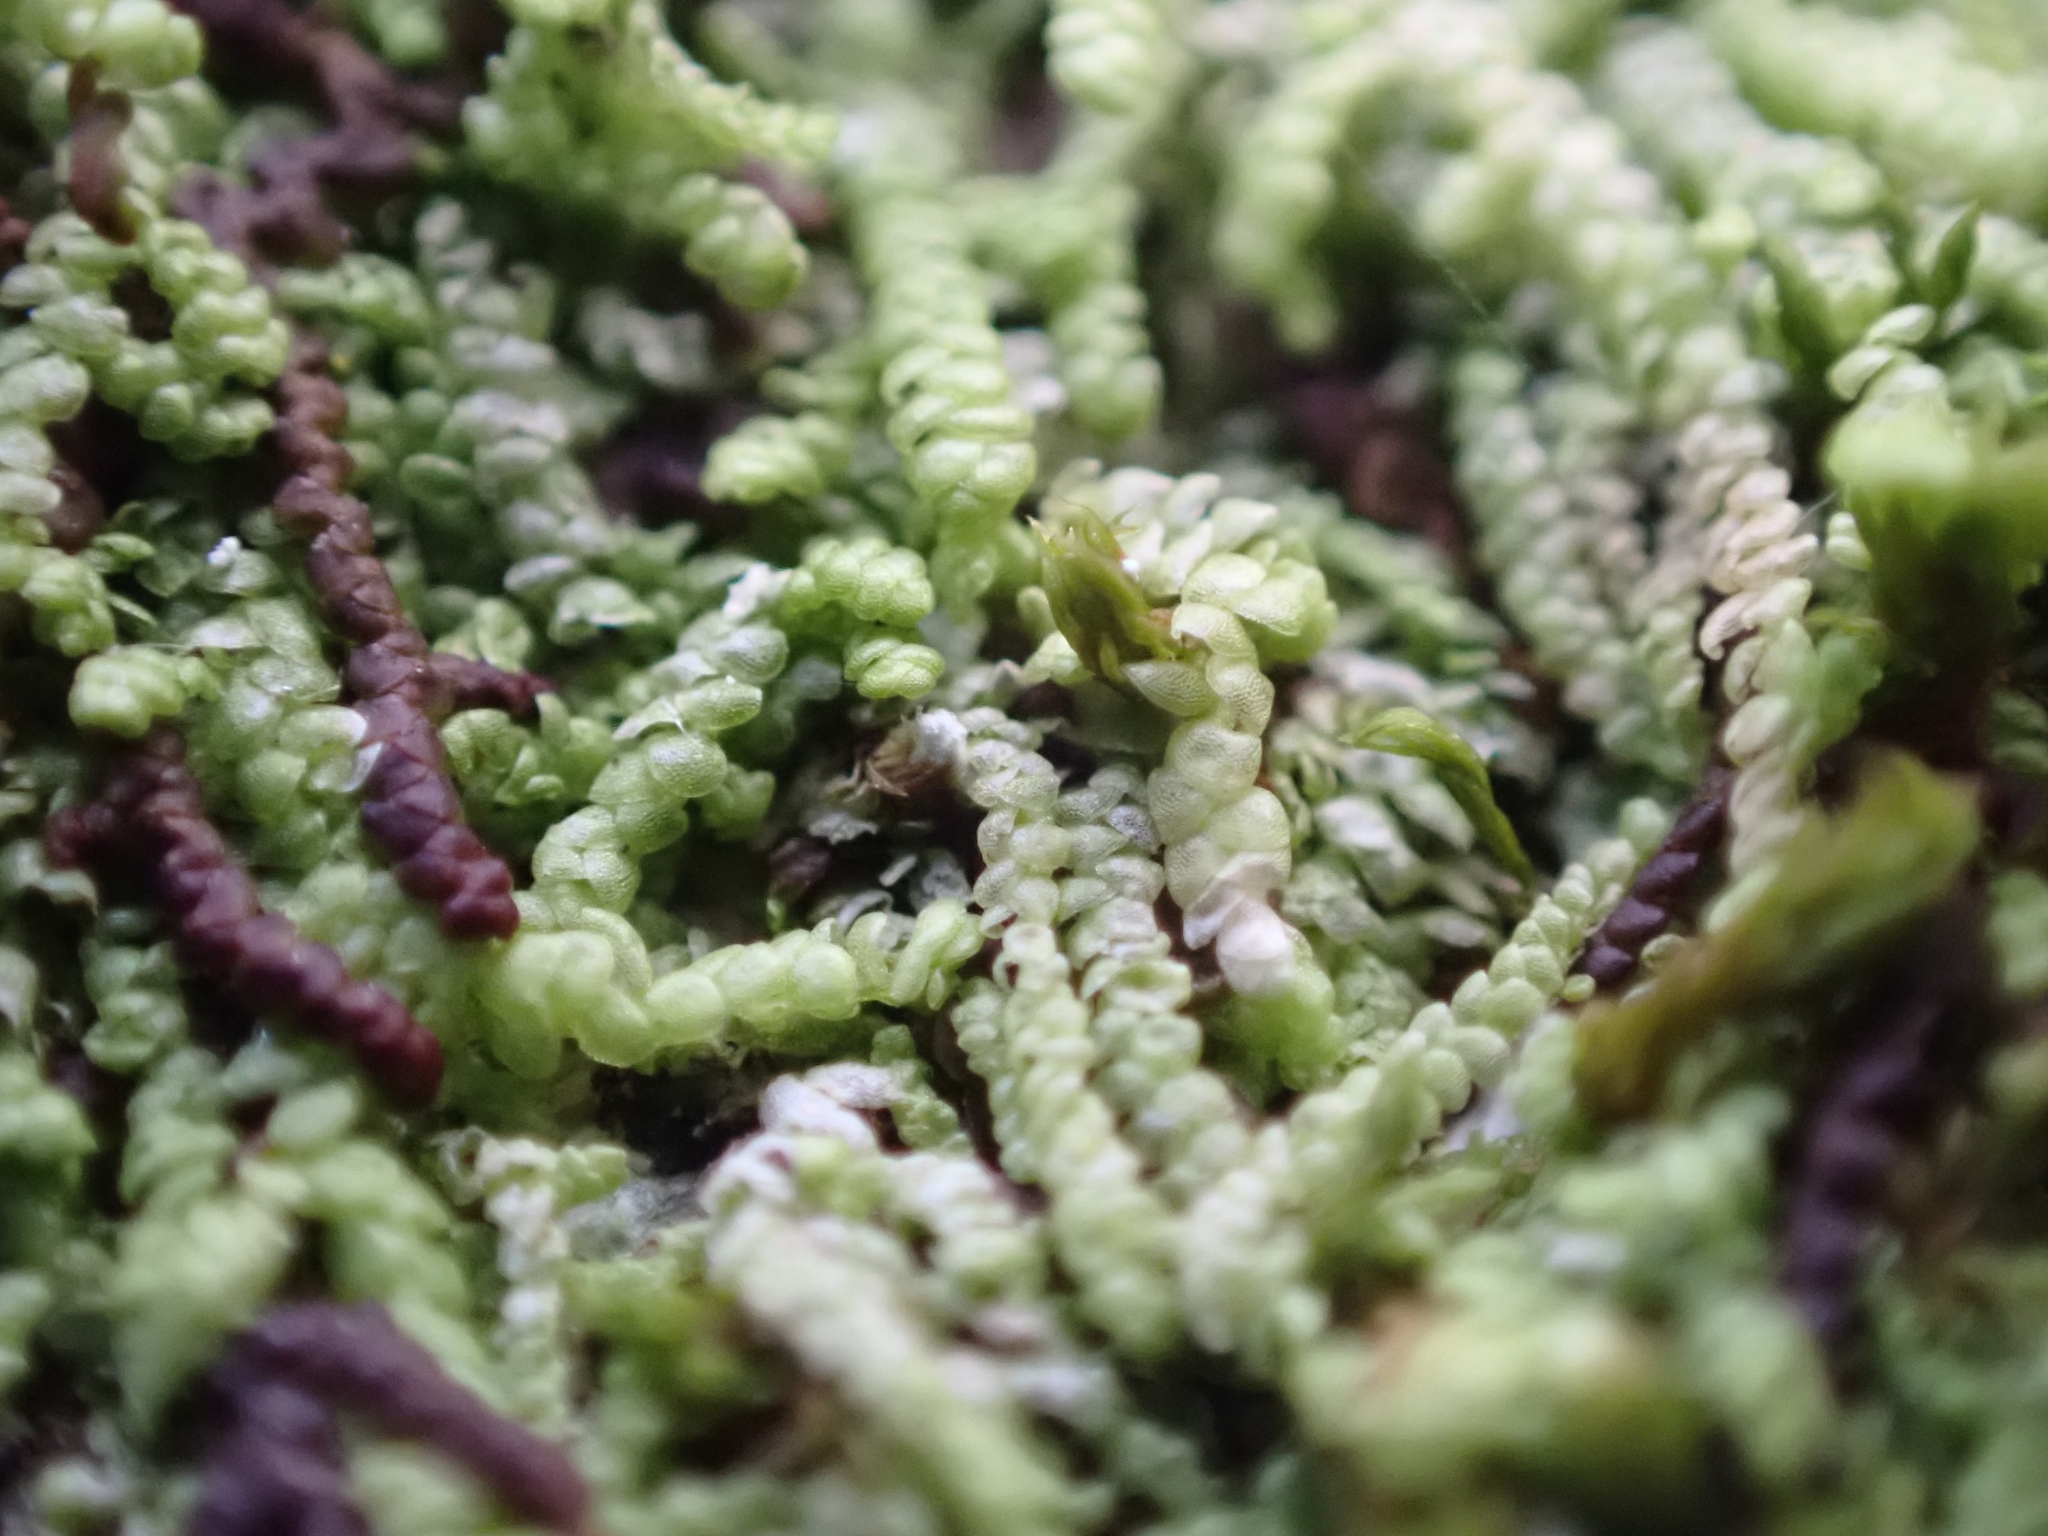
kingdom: Plantae
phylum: Marchantiophyta
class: Jungermanniopsida
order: Porellales
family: Lejeuneaceae
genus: Lejeunea
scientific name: Lejeunea cavifolia
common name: Least pouncewort
